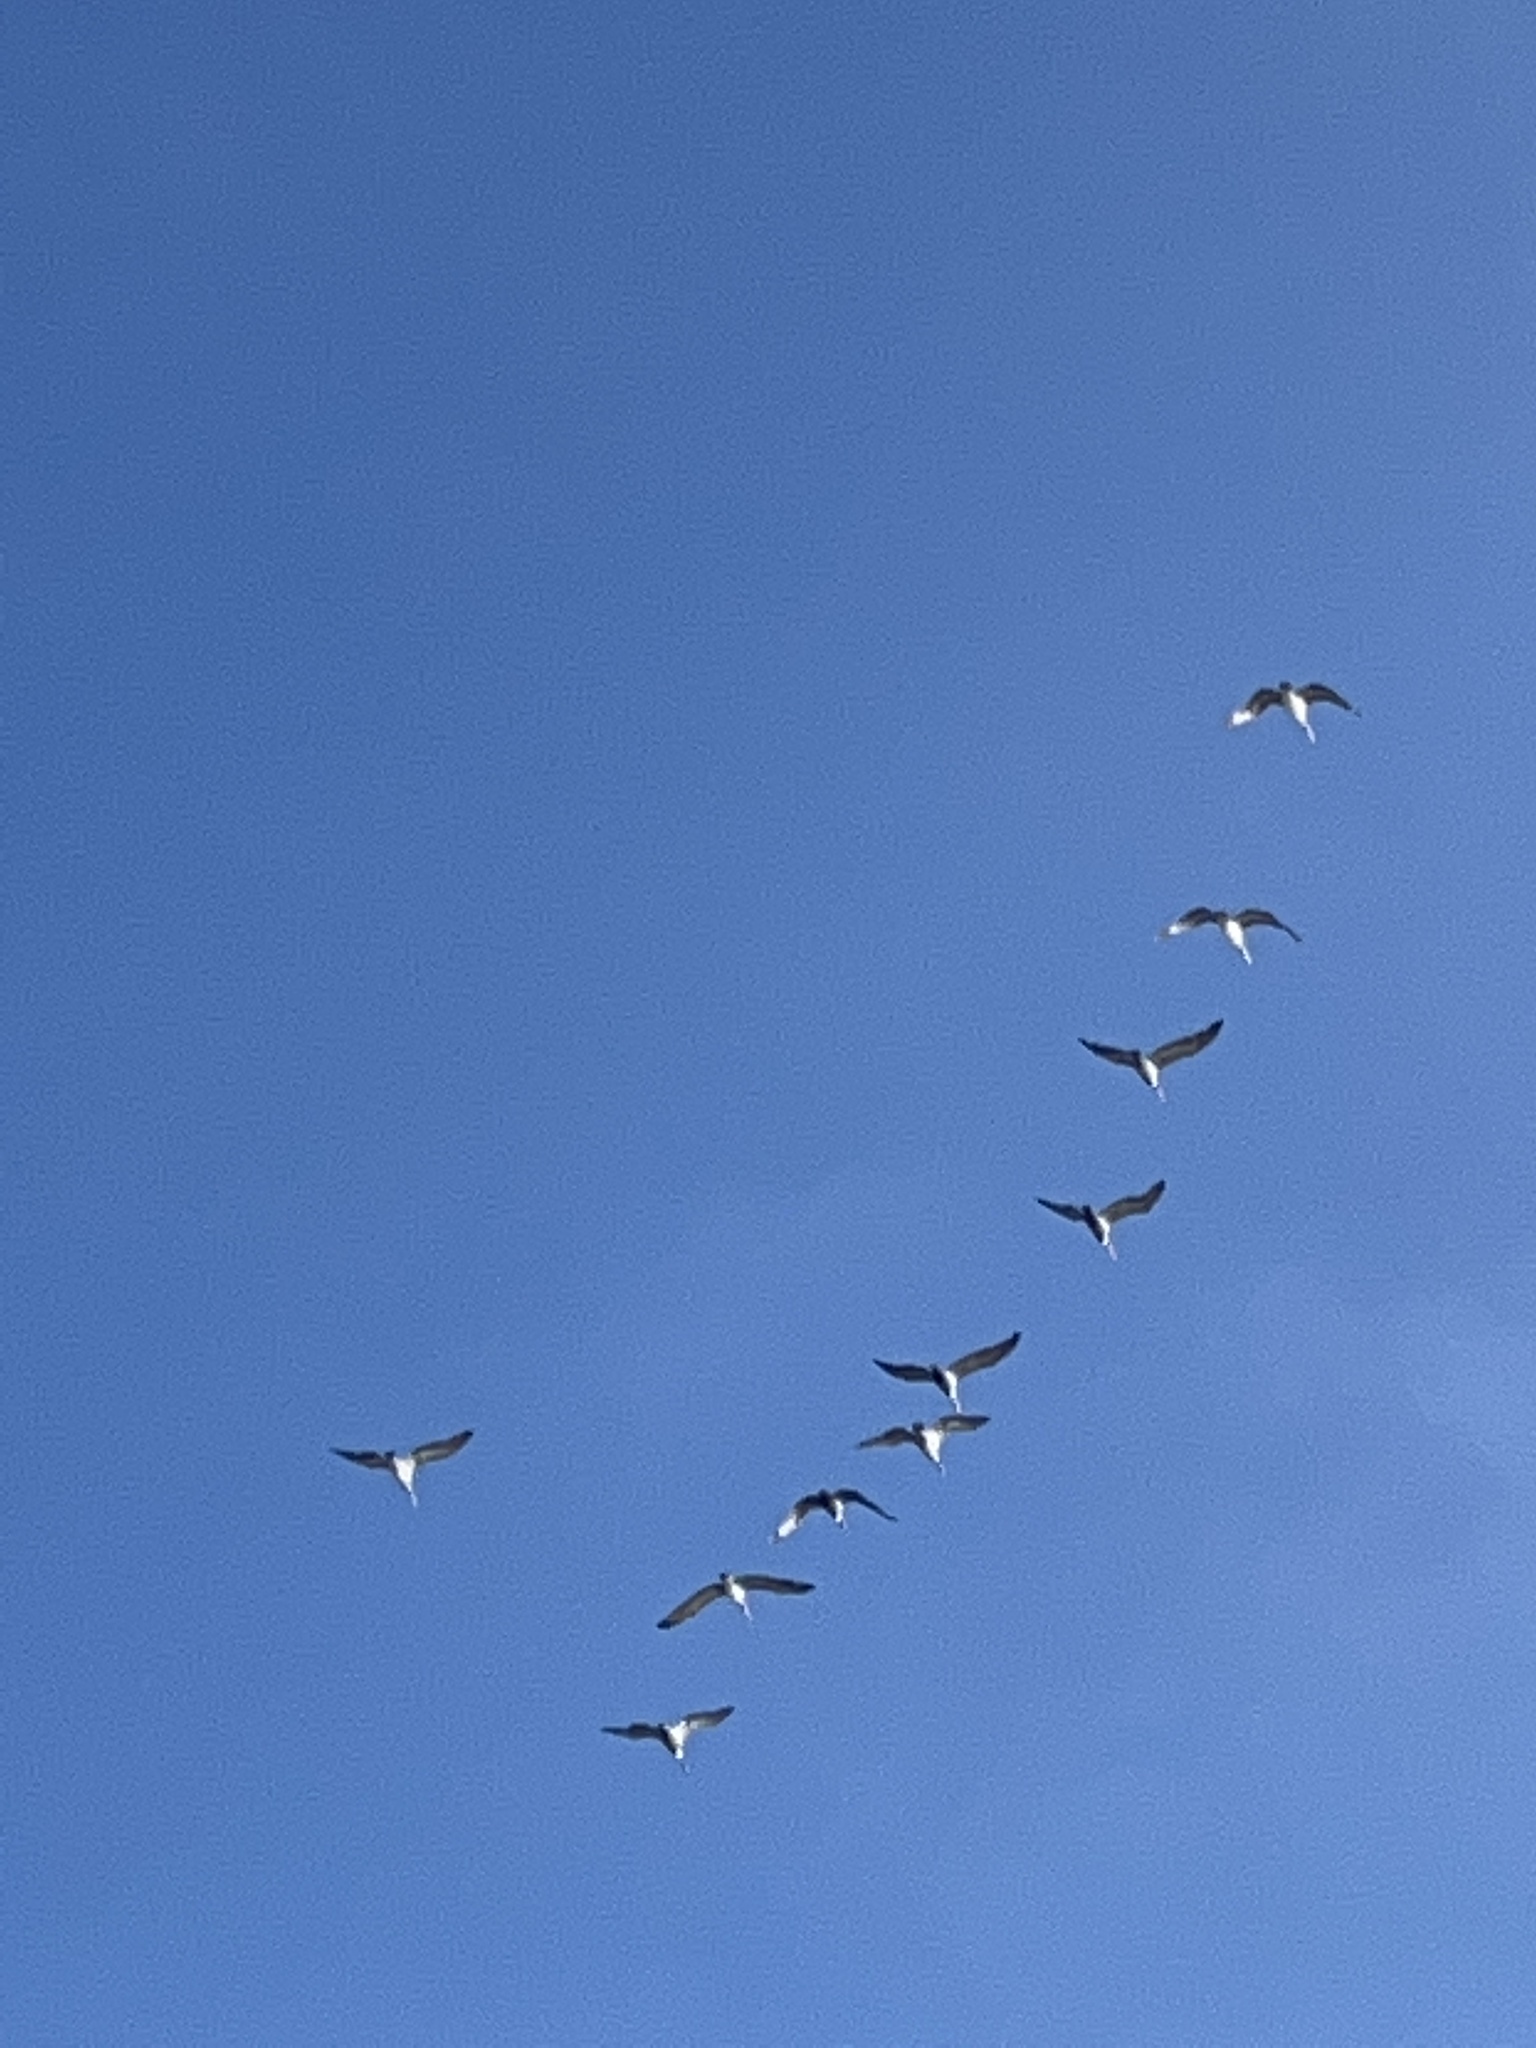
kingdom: Animalia
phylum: Chordata
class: Aves
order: Pelecaniformes
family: Pelecanidae
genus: Pelecanus
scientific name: Pelecanus occidentalis
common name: Brown pelican
